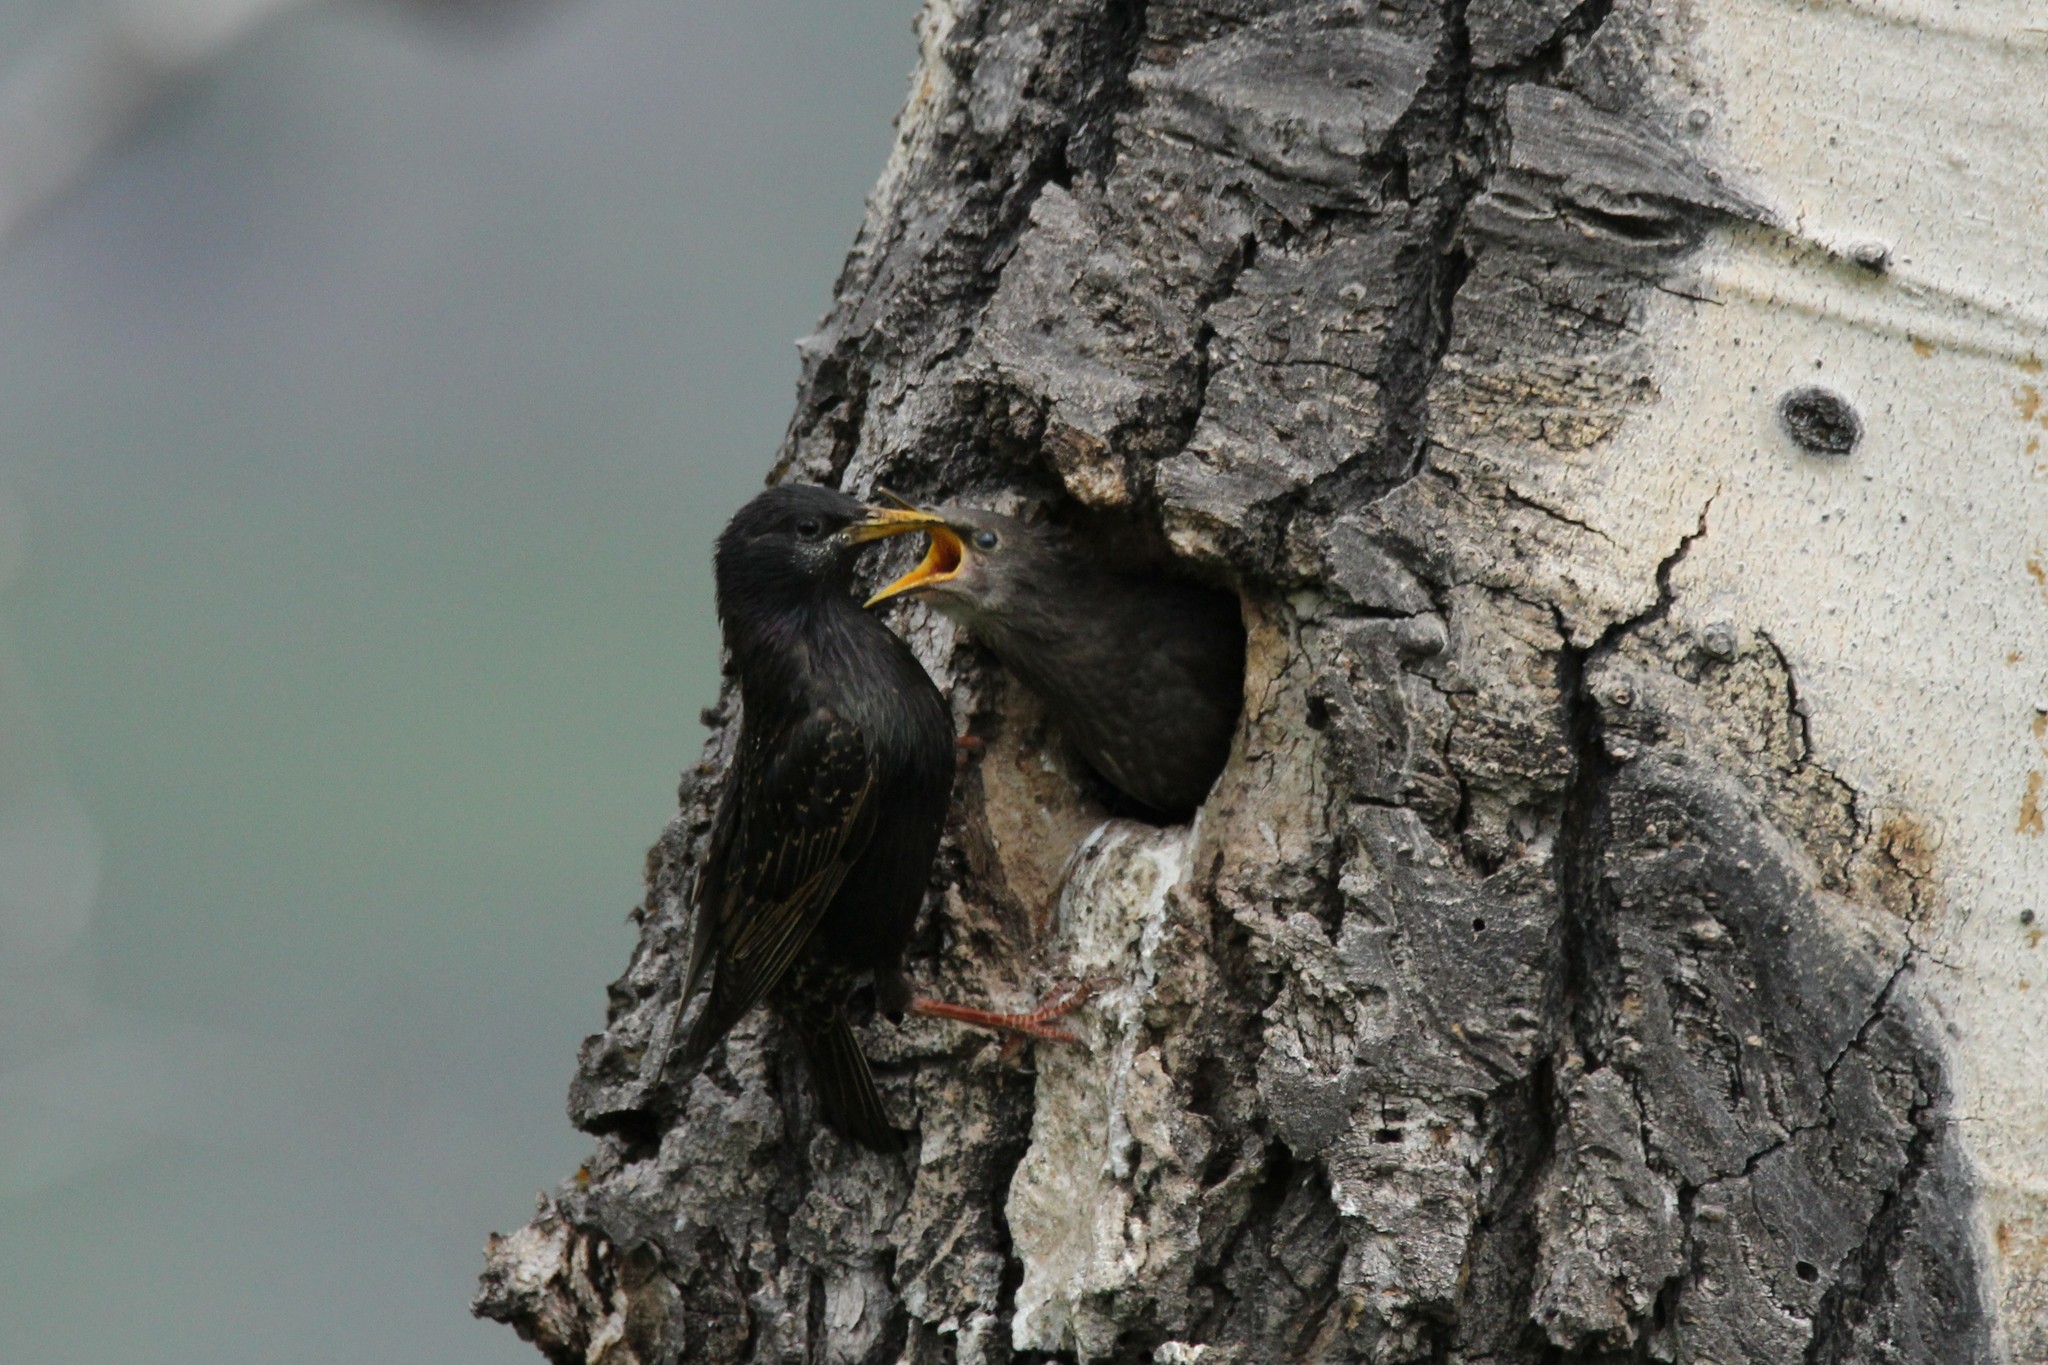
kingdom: Animalia
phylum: Chordata
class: Aves
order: Passeriformes
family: Sturnidae
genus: Sturnus
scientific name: Sturnus vulgaris
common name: Common starling
